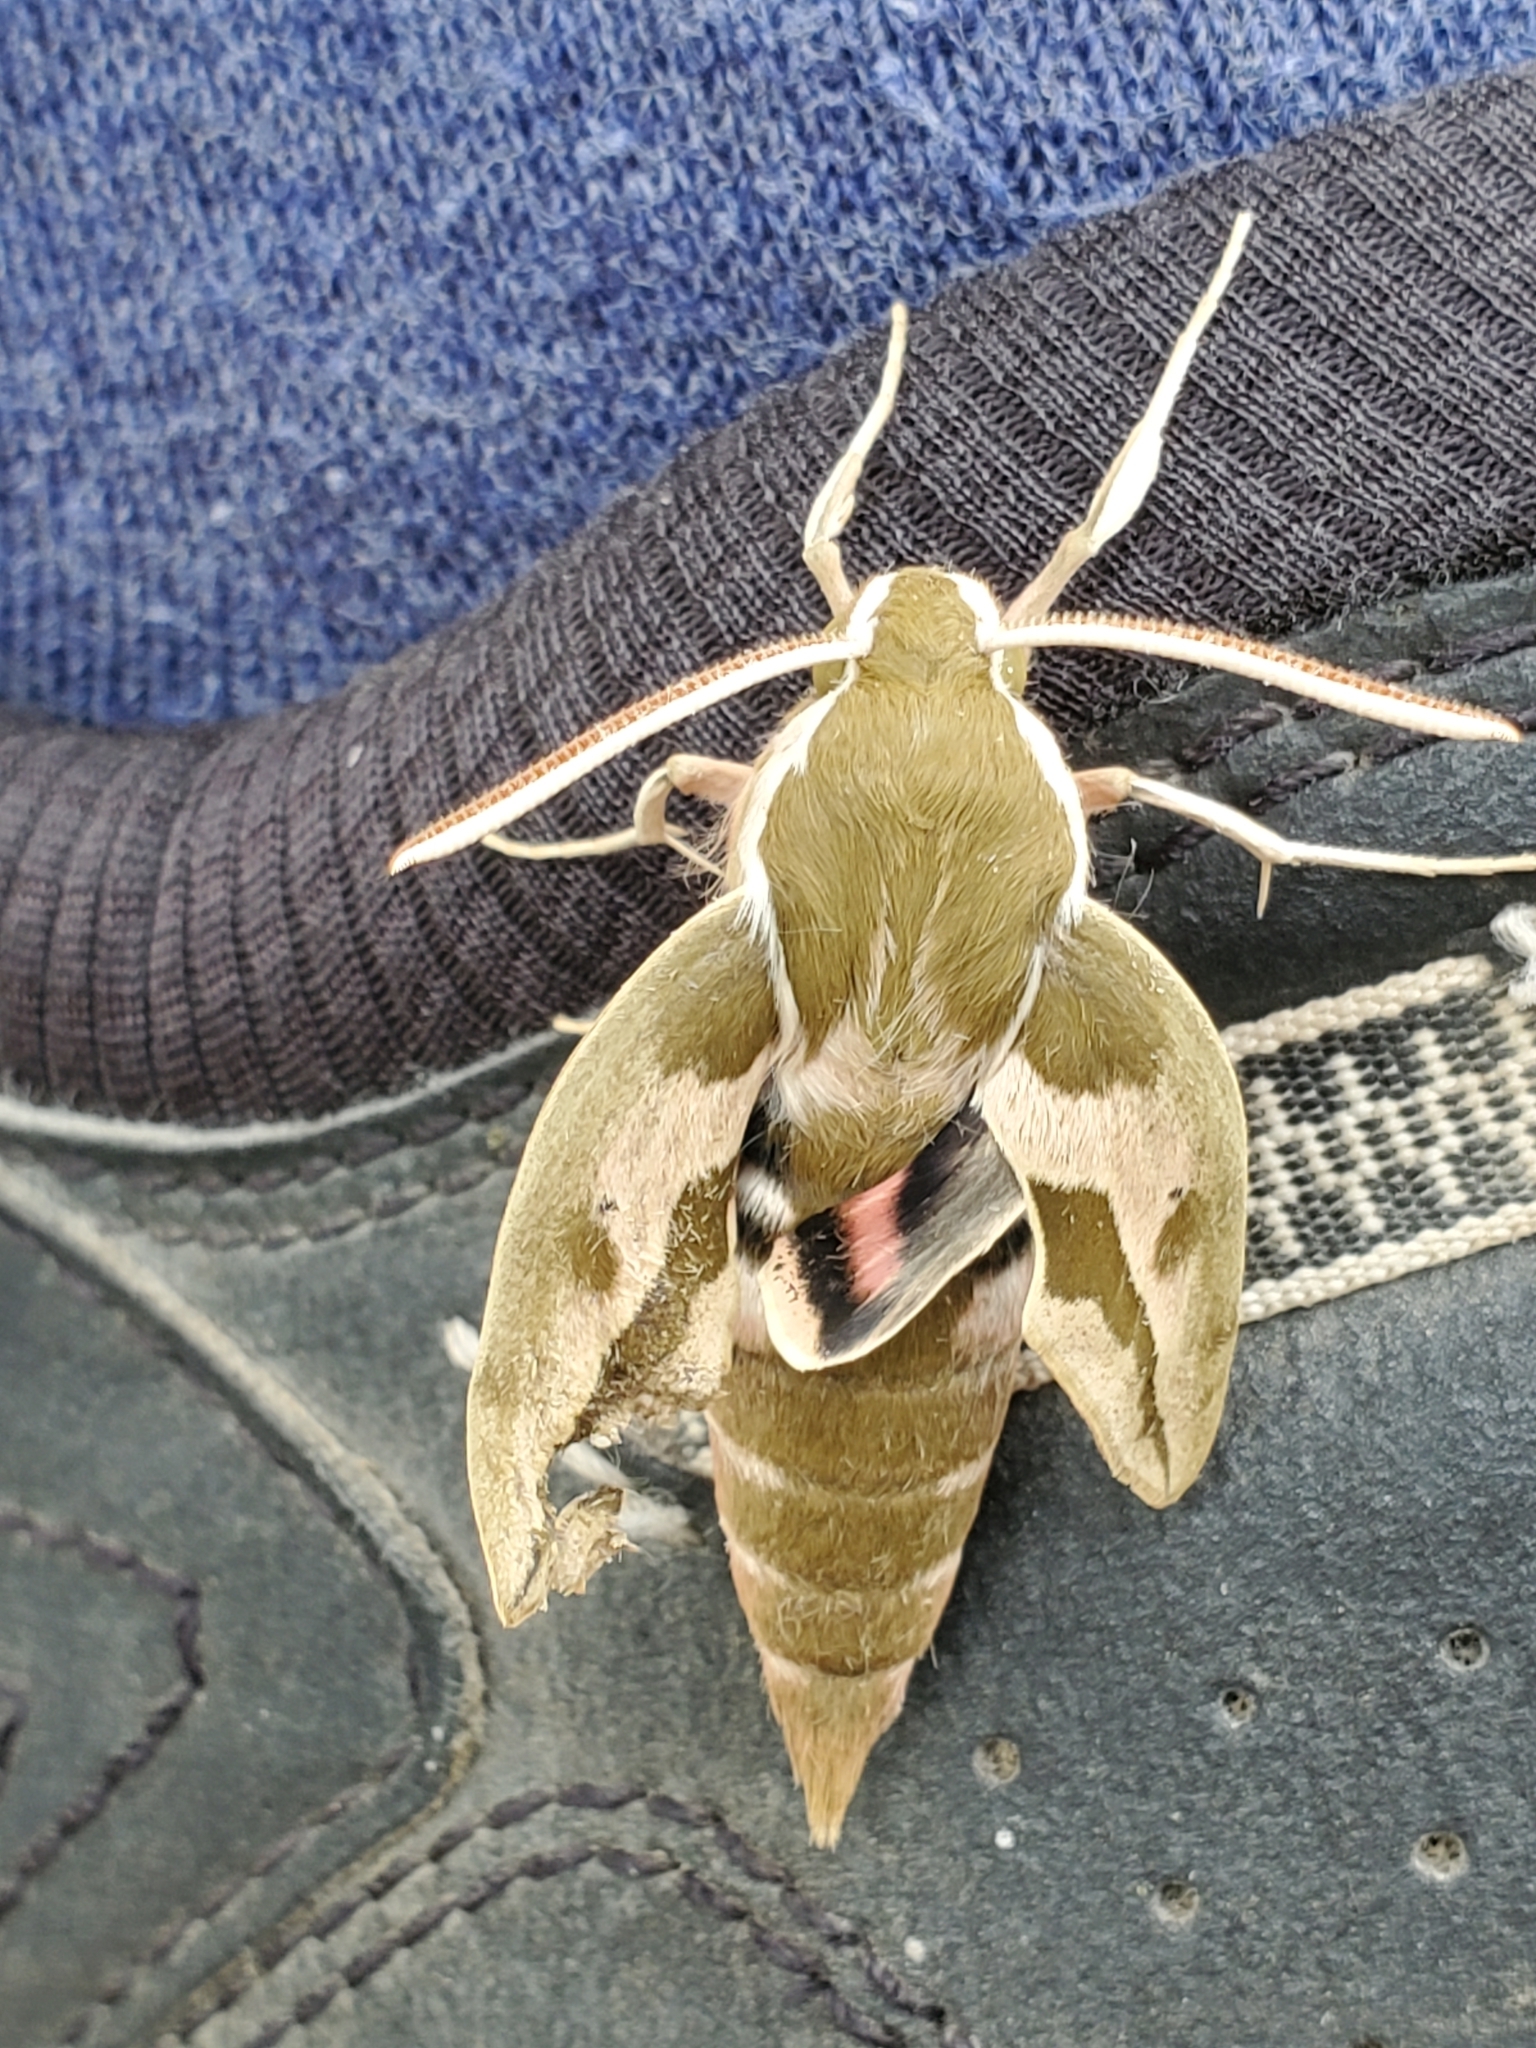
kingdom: Animalia
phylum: Arthropoda
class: Insecta
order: Lepidoptera
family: Sphingidae
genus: Hyles
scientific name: Hyles euphorbiae
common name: Spurge hawk-moth
